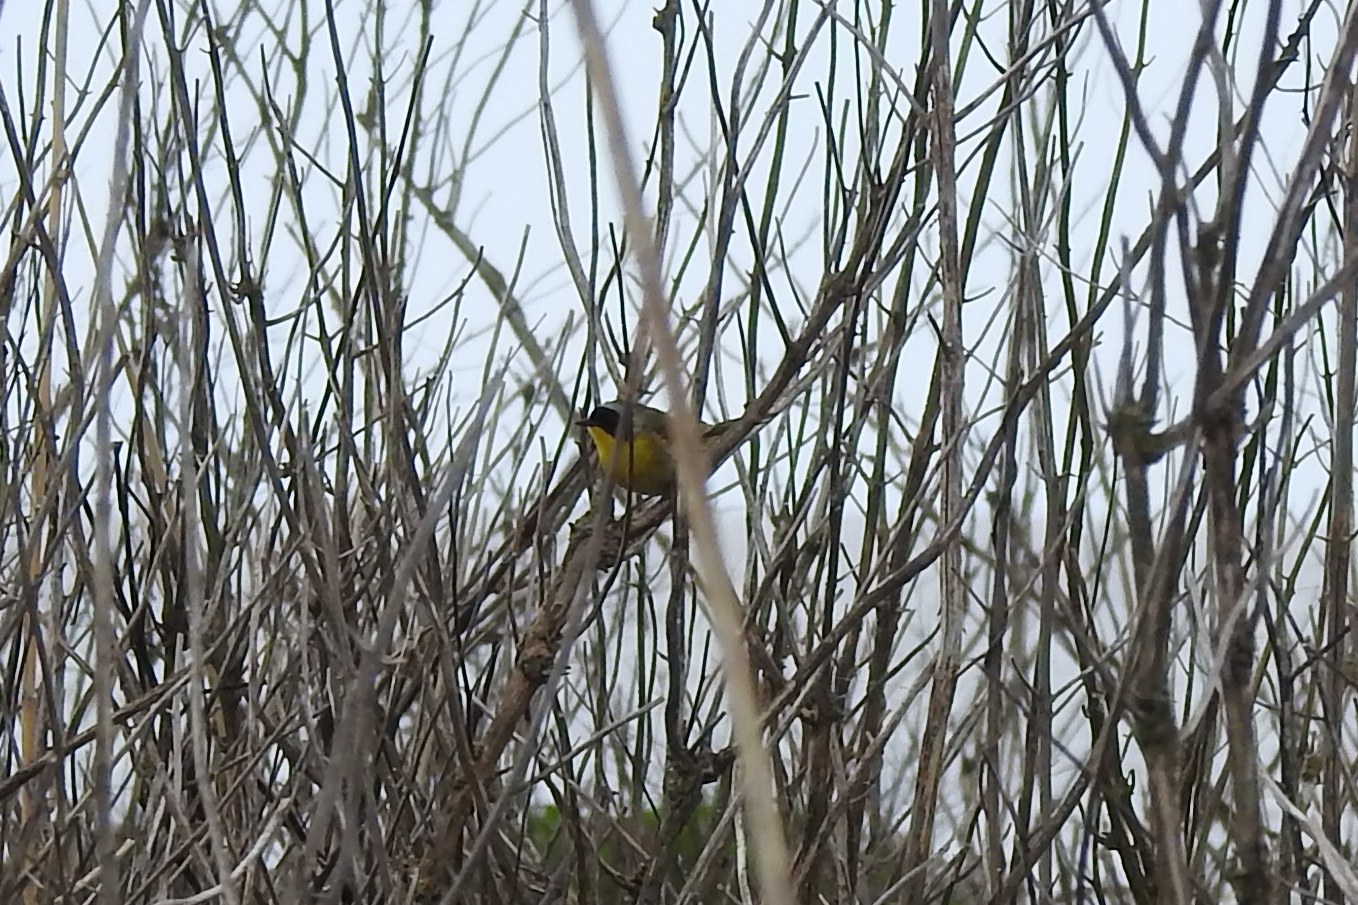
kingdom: Animalia
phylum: Chordata
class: Aves
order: Passeriformes
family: Parulidae
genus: Geothlypis
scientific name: Geothlypis trichas
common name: Common yellowthroat
